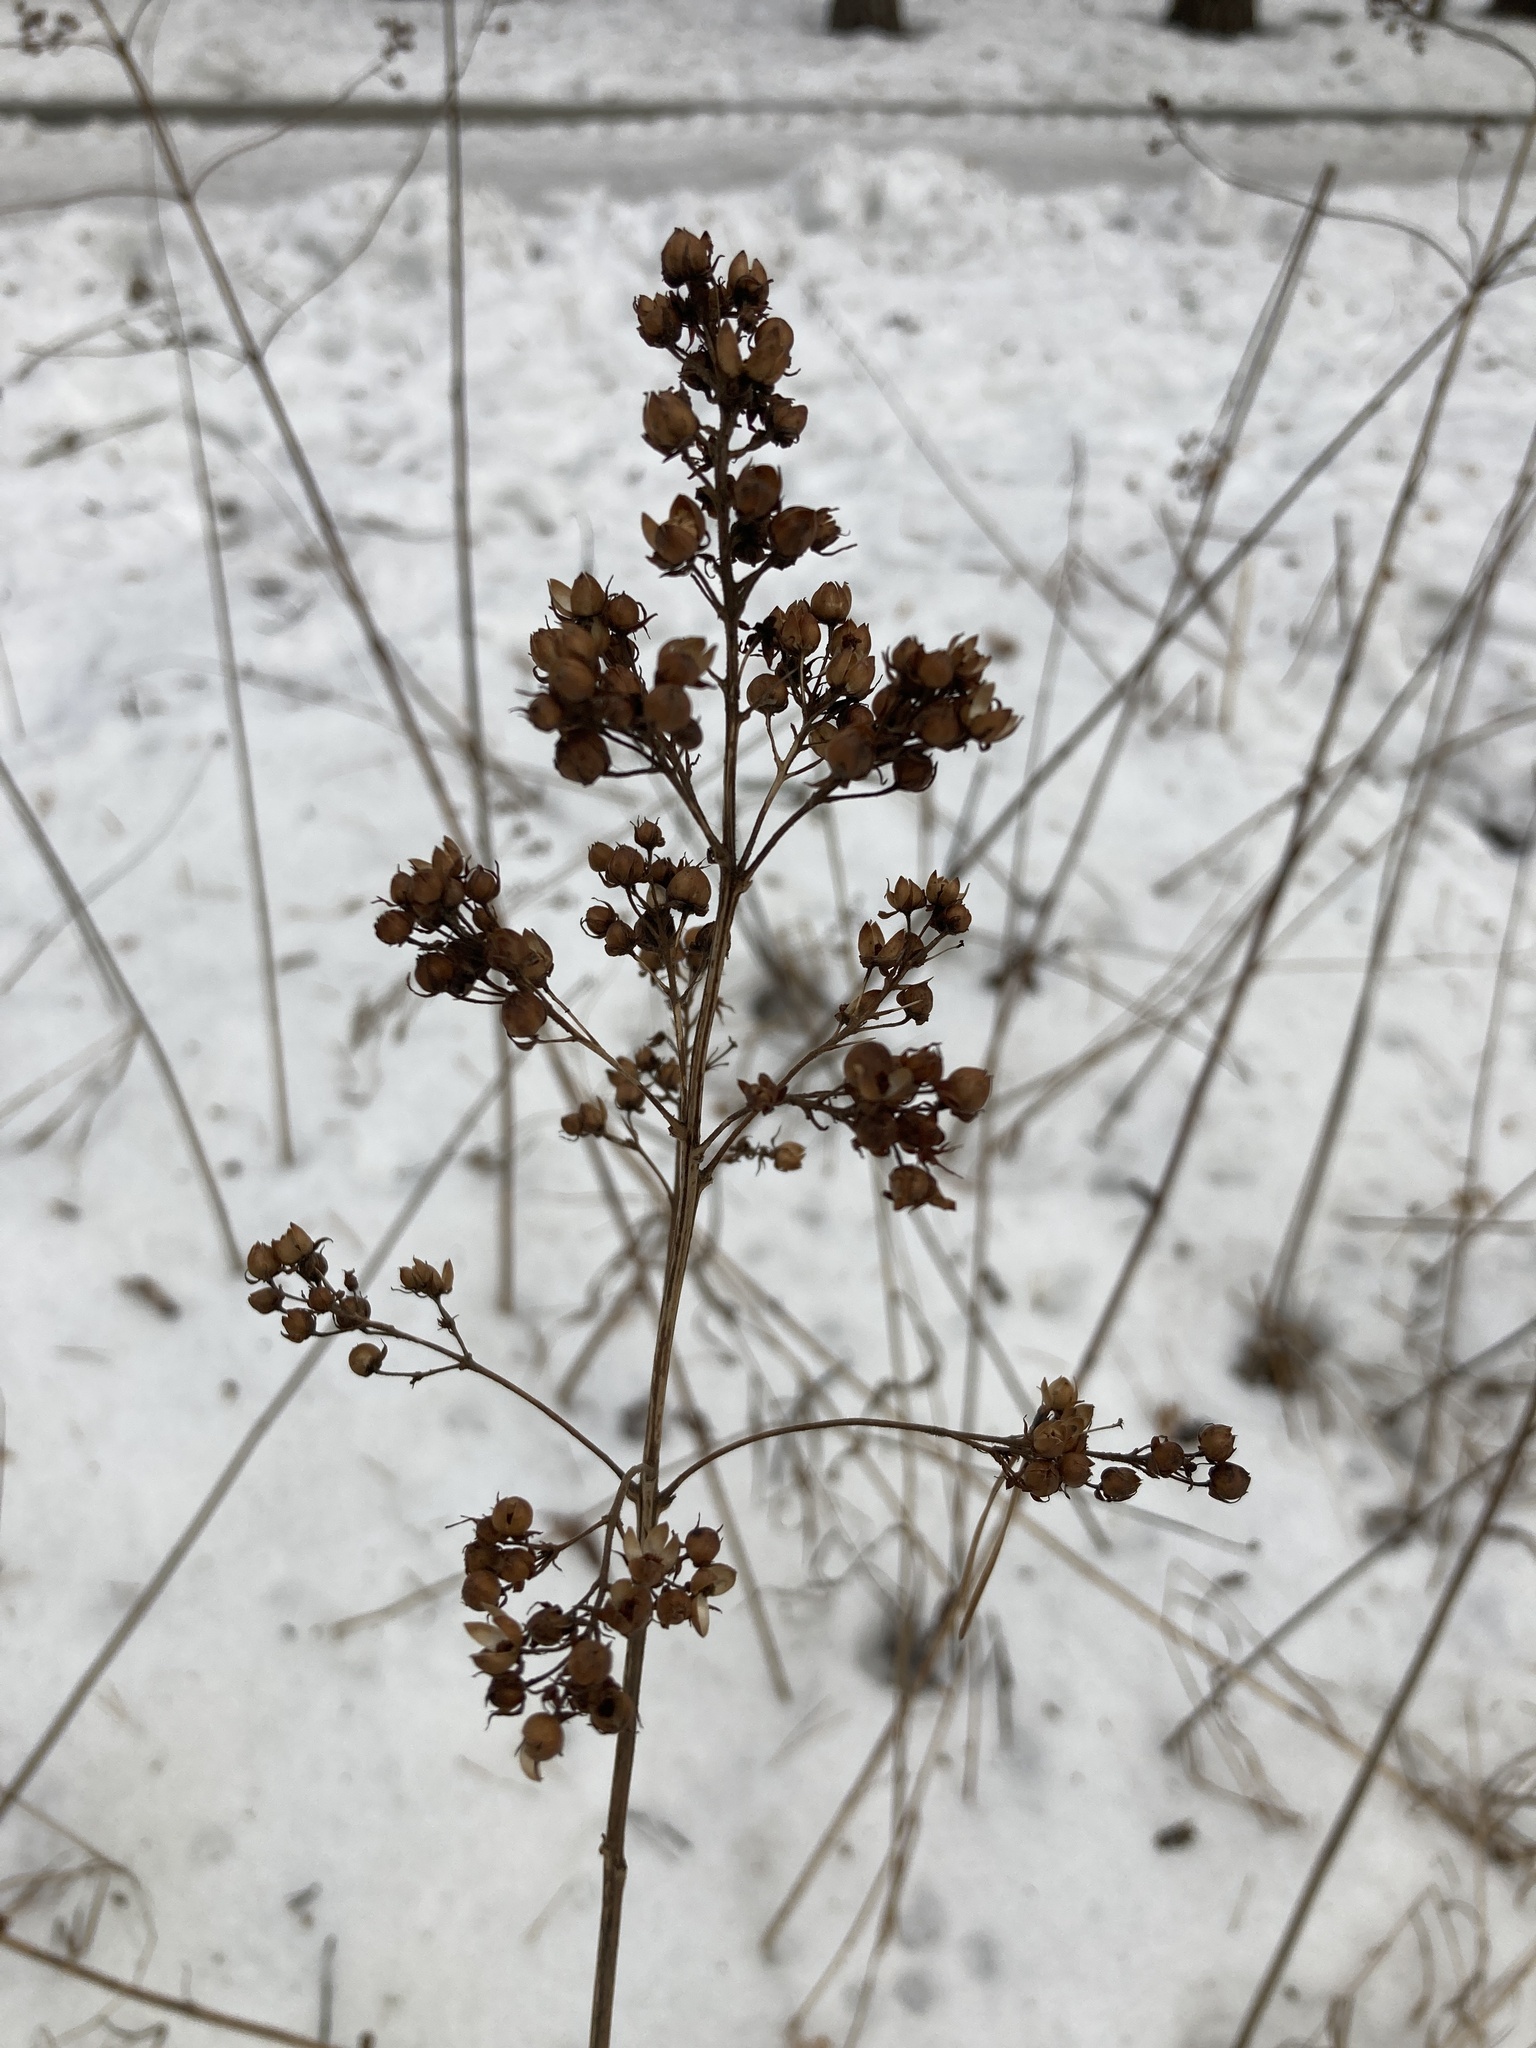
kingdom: Plantae
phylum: Tracheophyta
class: Magnoliopsida
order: Ericales
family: Primulaceae
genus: Lysimachia
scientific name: Lysimachia vulgaris
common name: Yellow loosestrife
